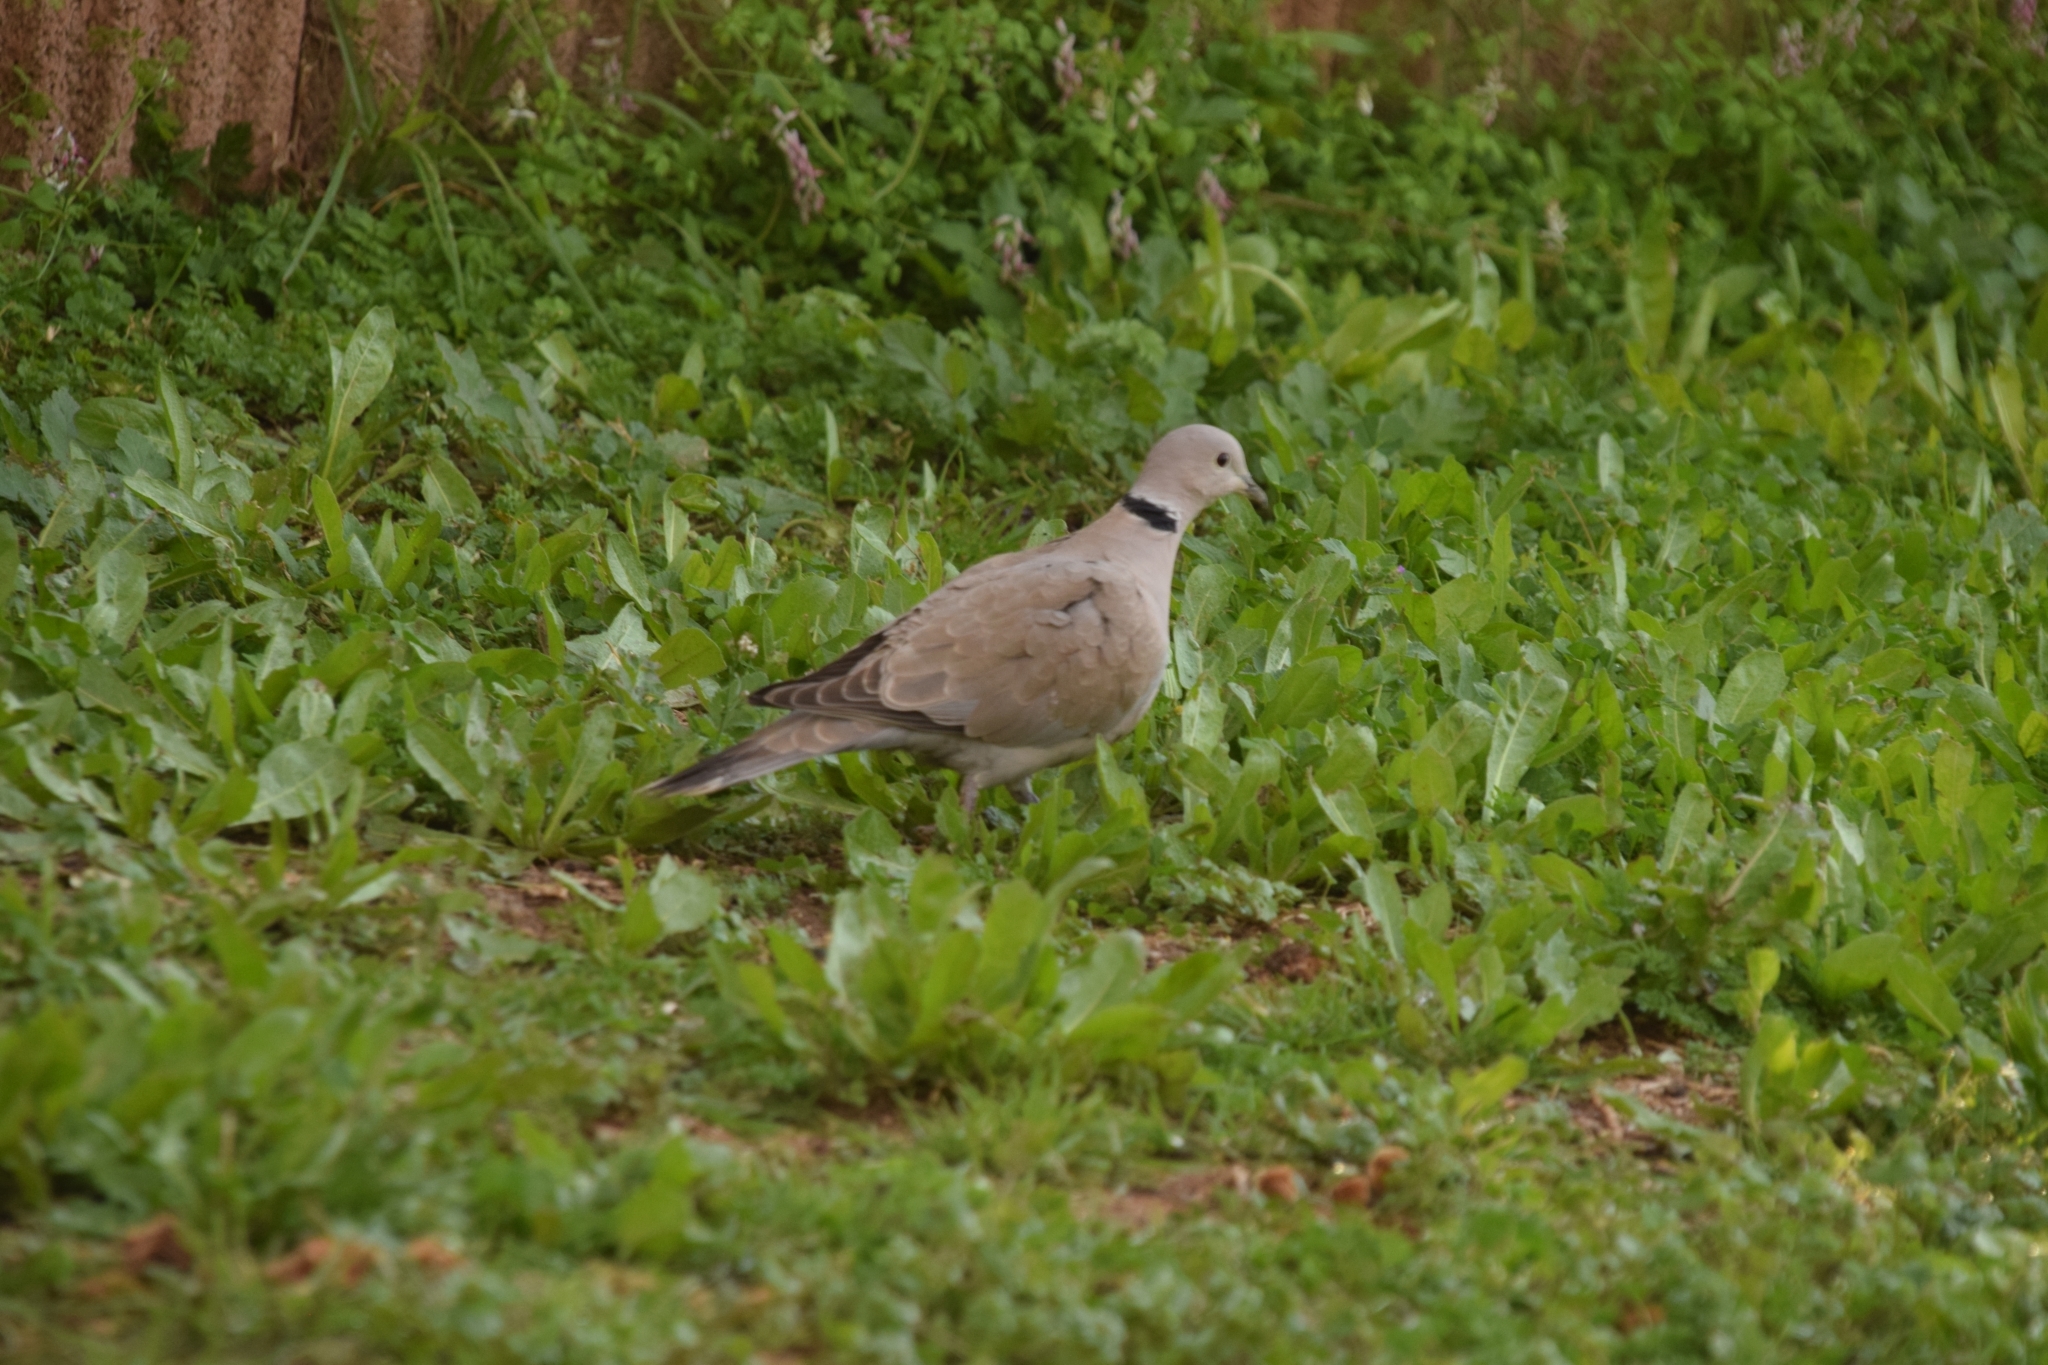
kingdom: Animalia
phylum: Chordata
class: Aves
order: Columbiformes
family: Columbidae
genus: Streptopelia
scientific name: Streptopelia decaocto
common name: Eurasian collared dove
